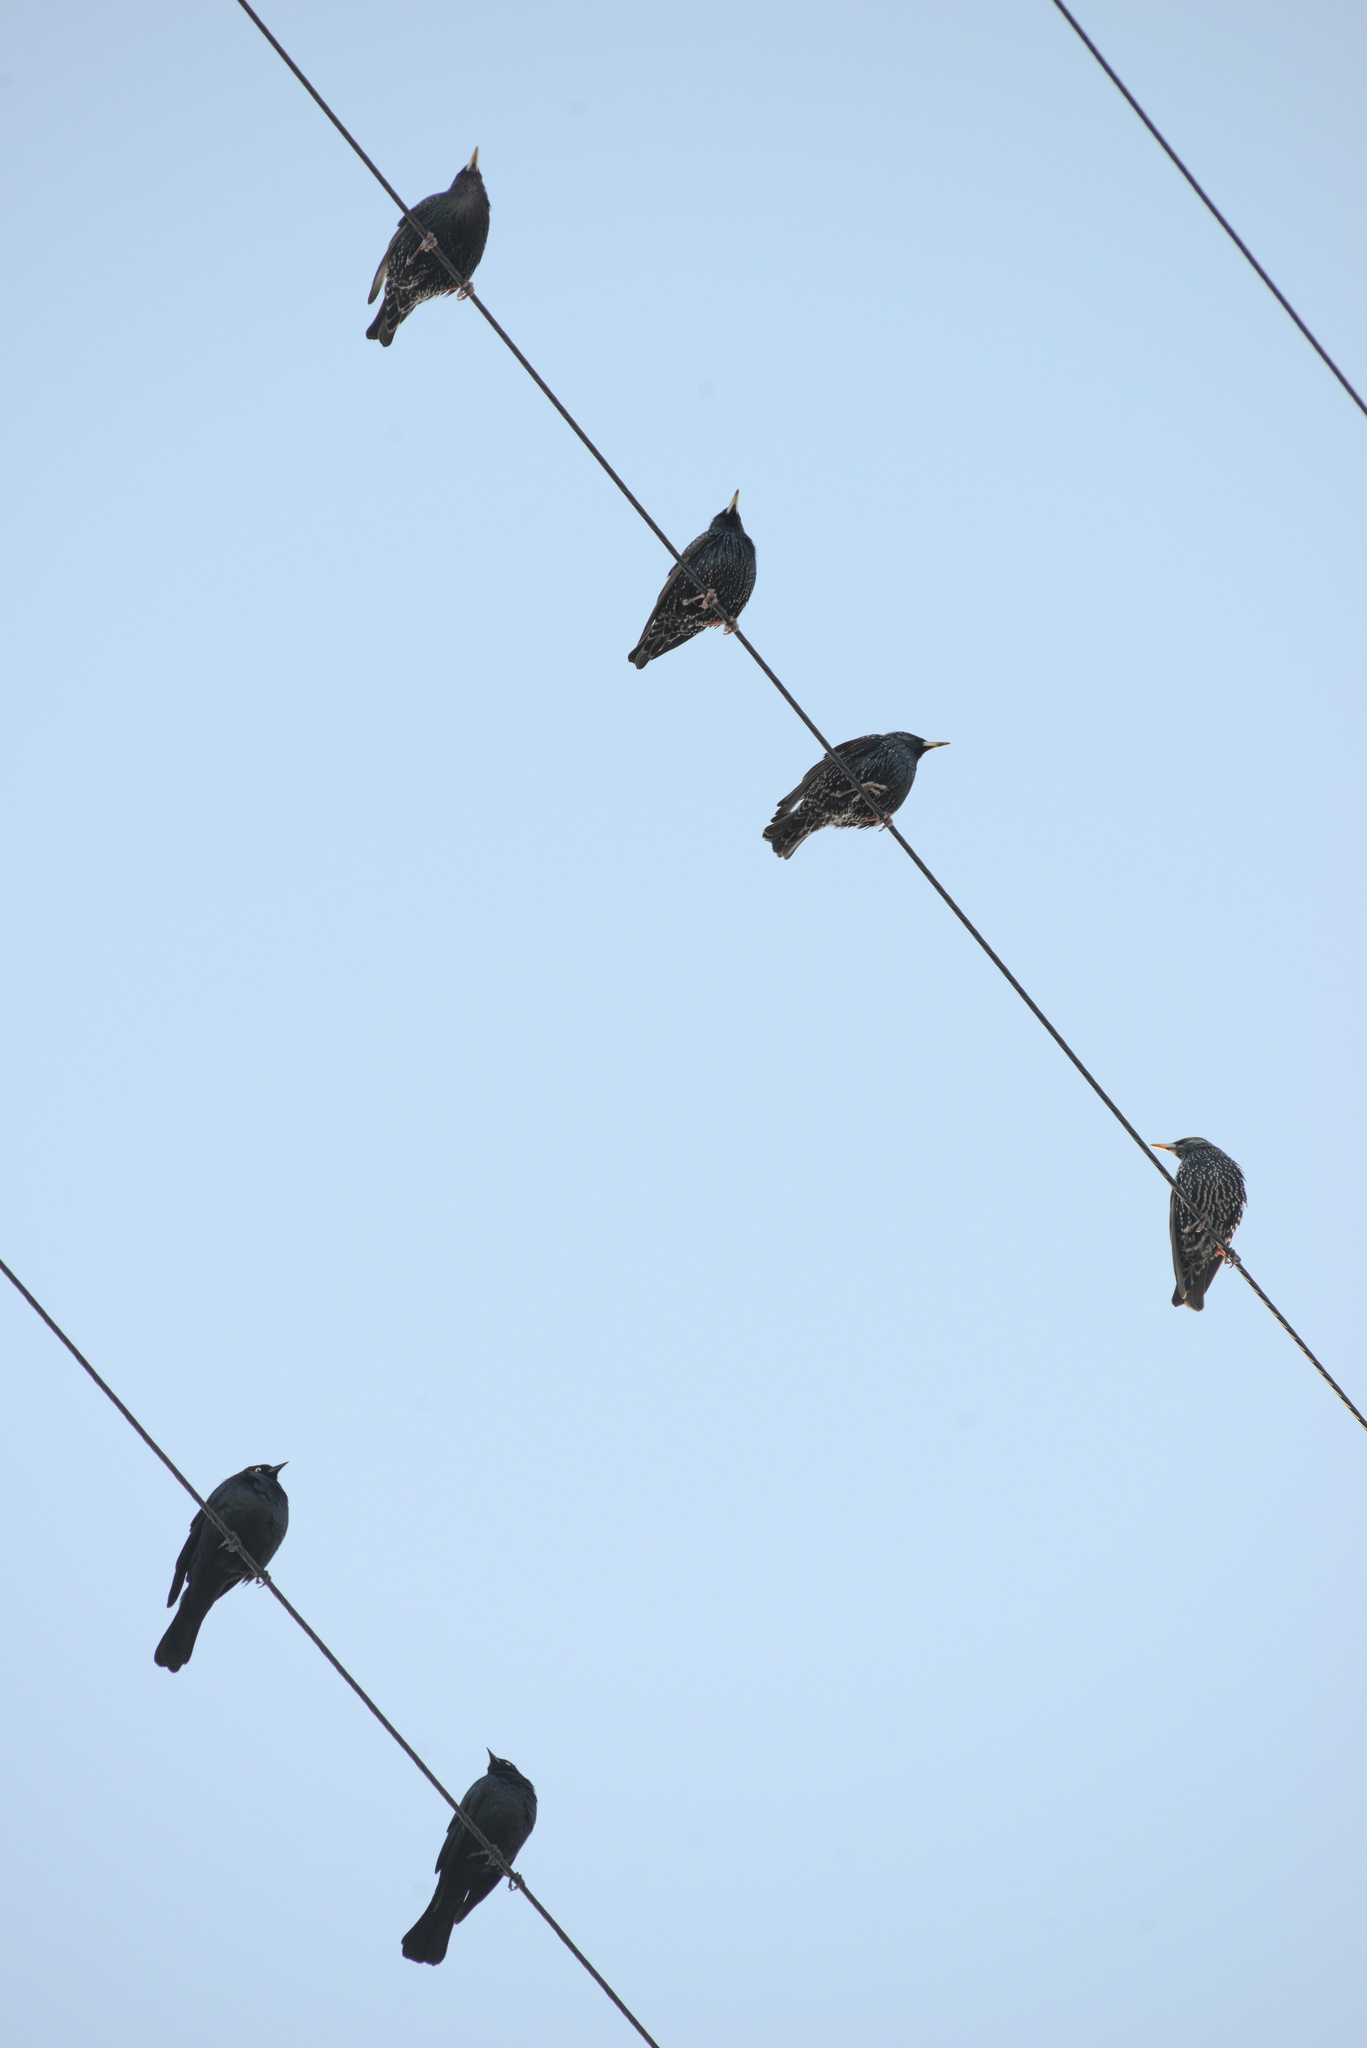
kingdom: Animalia
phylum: Chordata
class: Aves
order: Passeriformes
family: Icteridae
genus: Euphagus
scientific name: Euphagus cyanocephalus
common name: Brewer's blackbird
